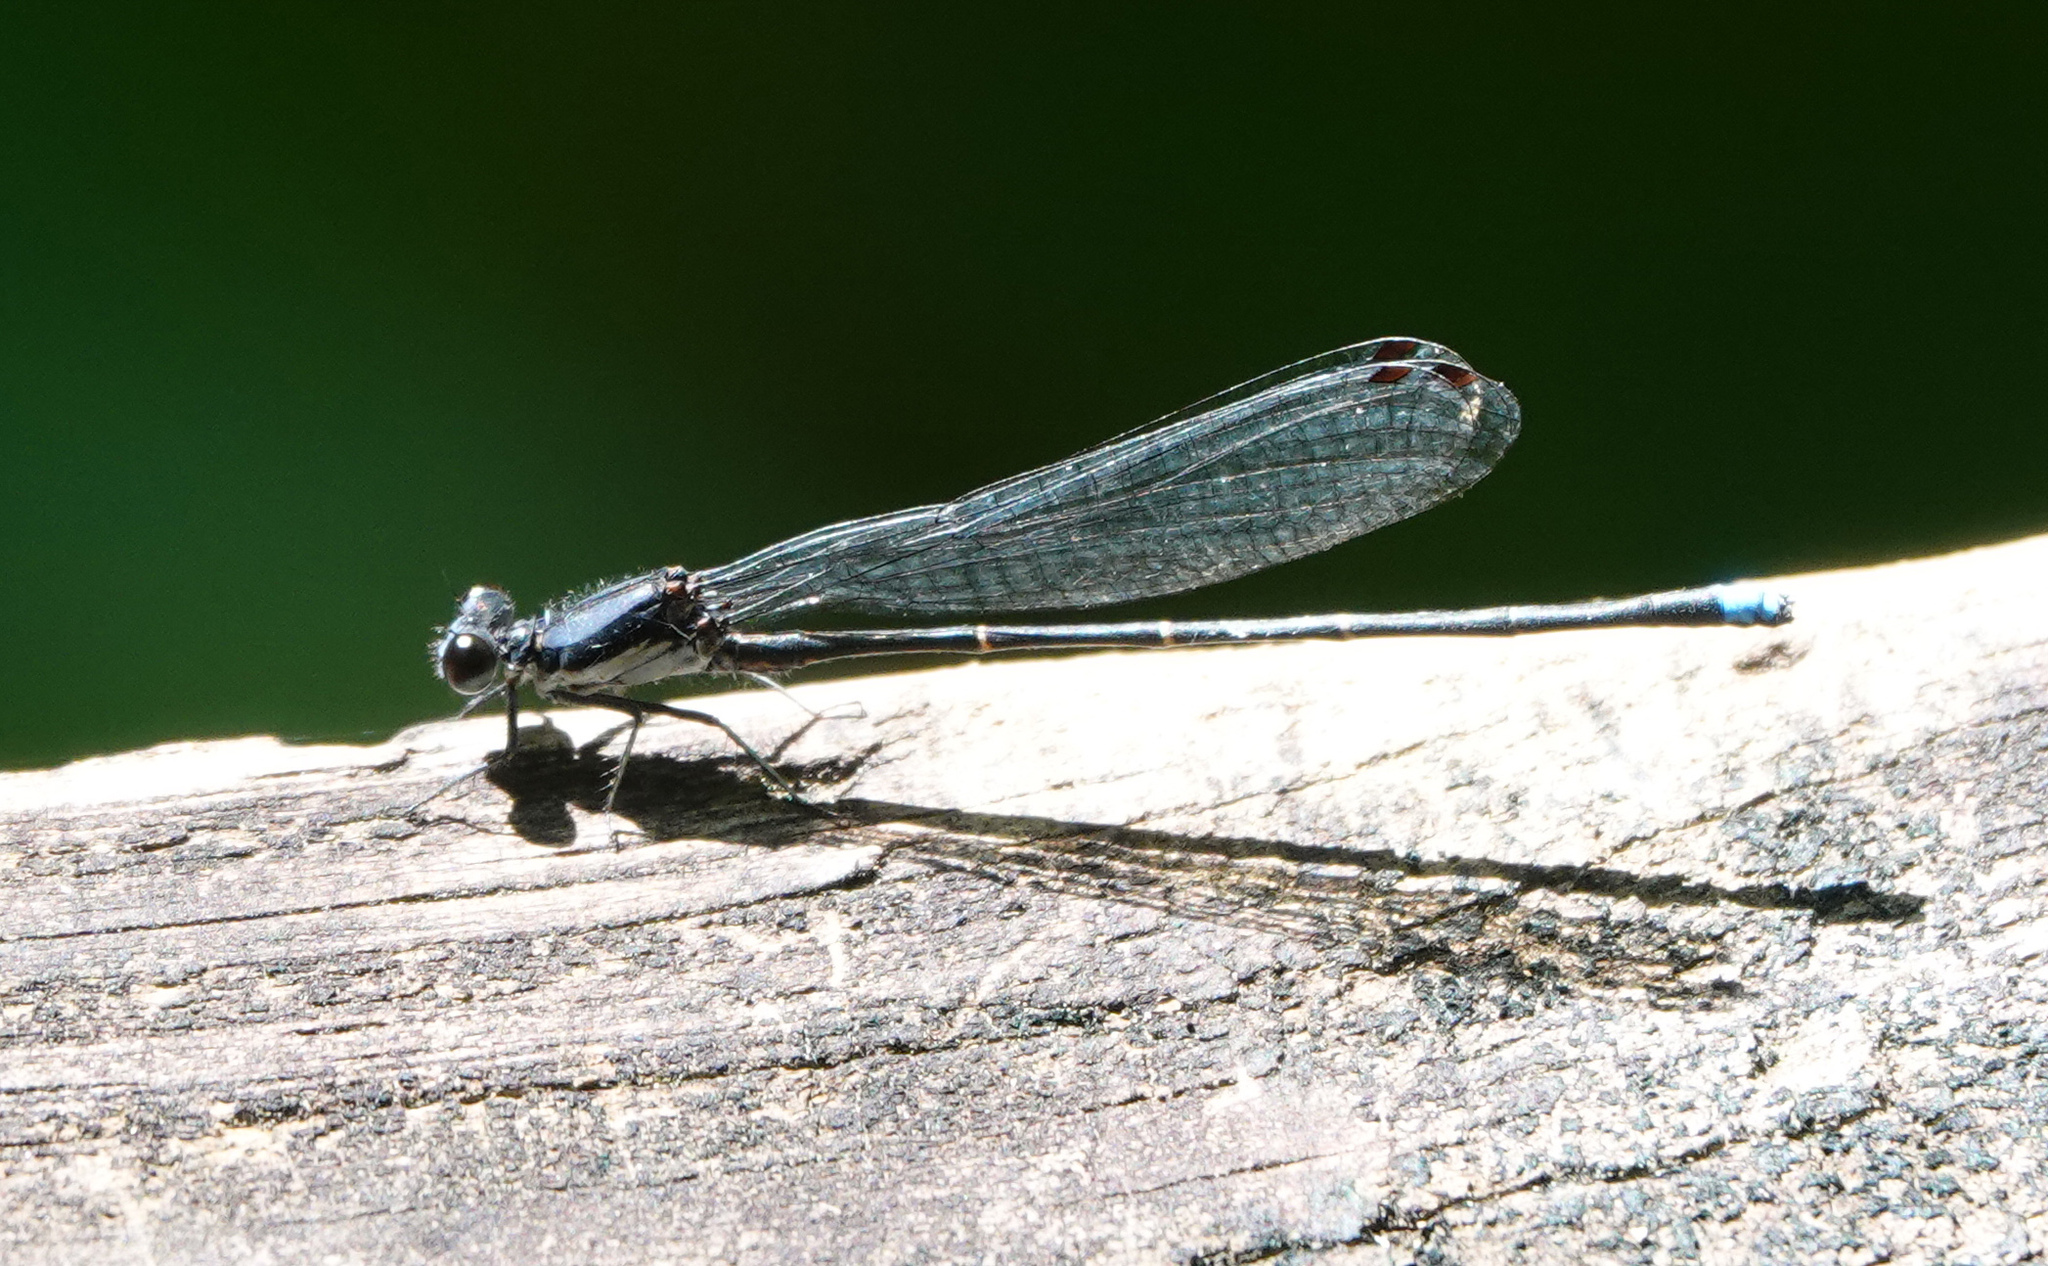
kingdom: Animalia
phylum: Arthropoda
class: Insecta
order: Odonata
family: Coenagrionidae
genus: Argia
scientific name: Argia tibialis
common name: Blue-tipped dancer
